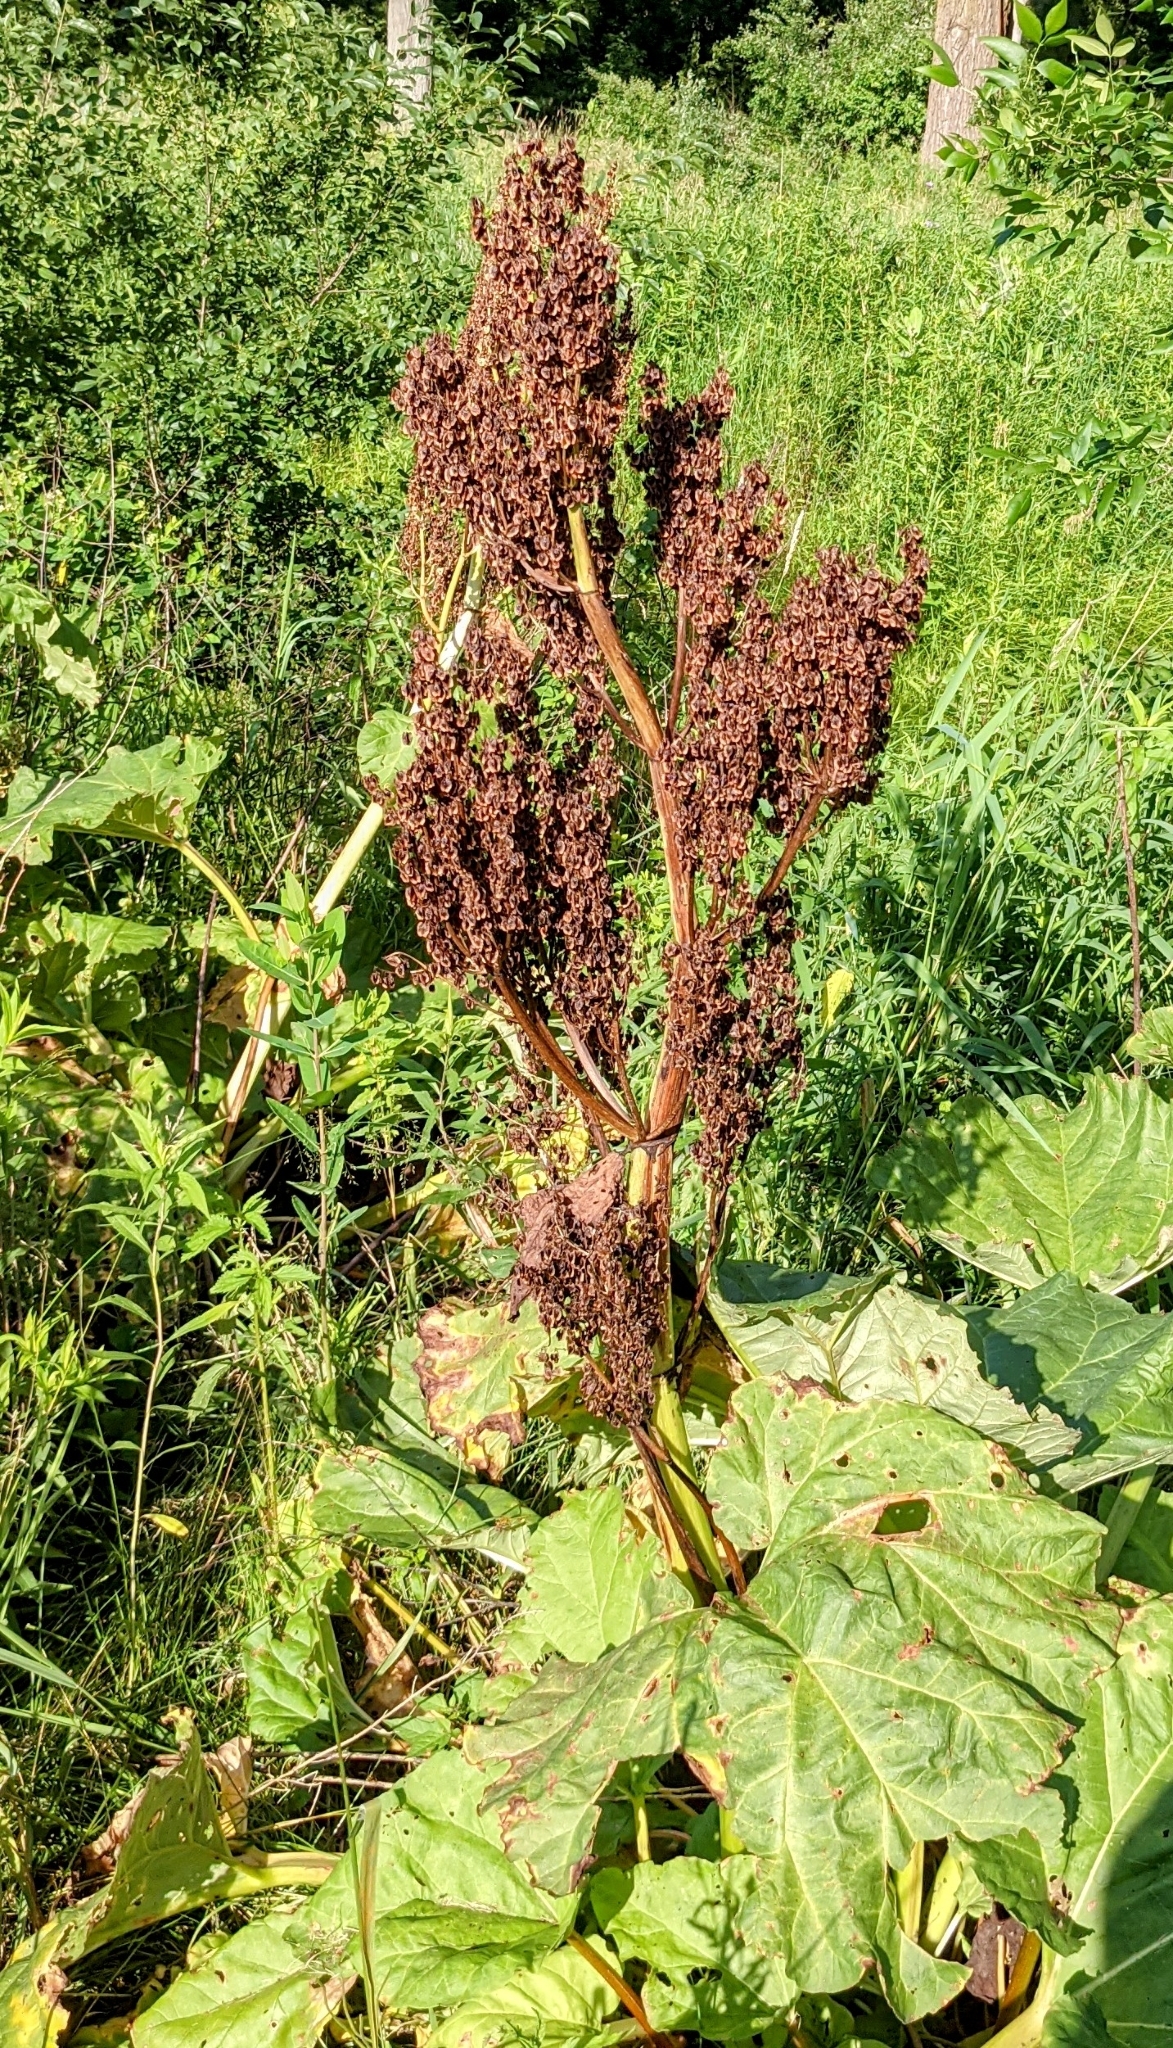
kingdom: Plantae
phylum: Tracheophyta
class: Magnoliopsida
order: Caryophyllales
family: Polygonaceae
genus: Rheum
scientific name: Rheum rhabarbarum
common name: Garden rhubarb
